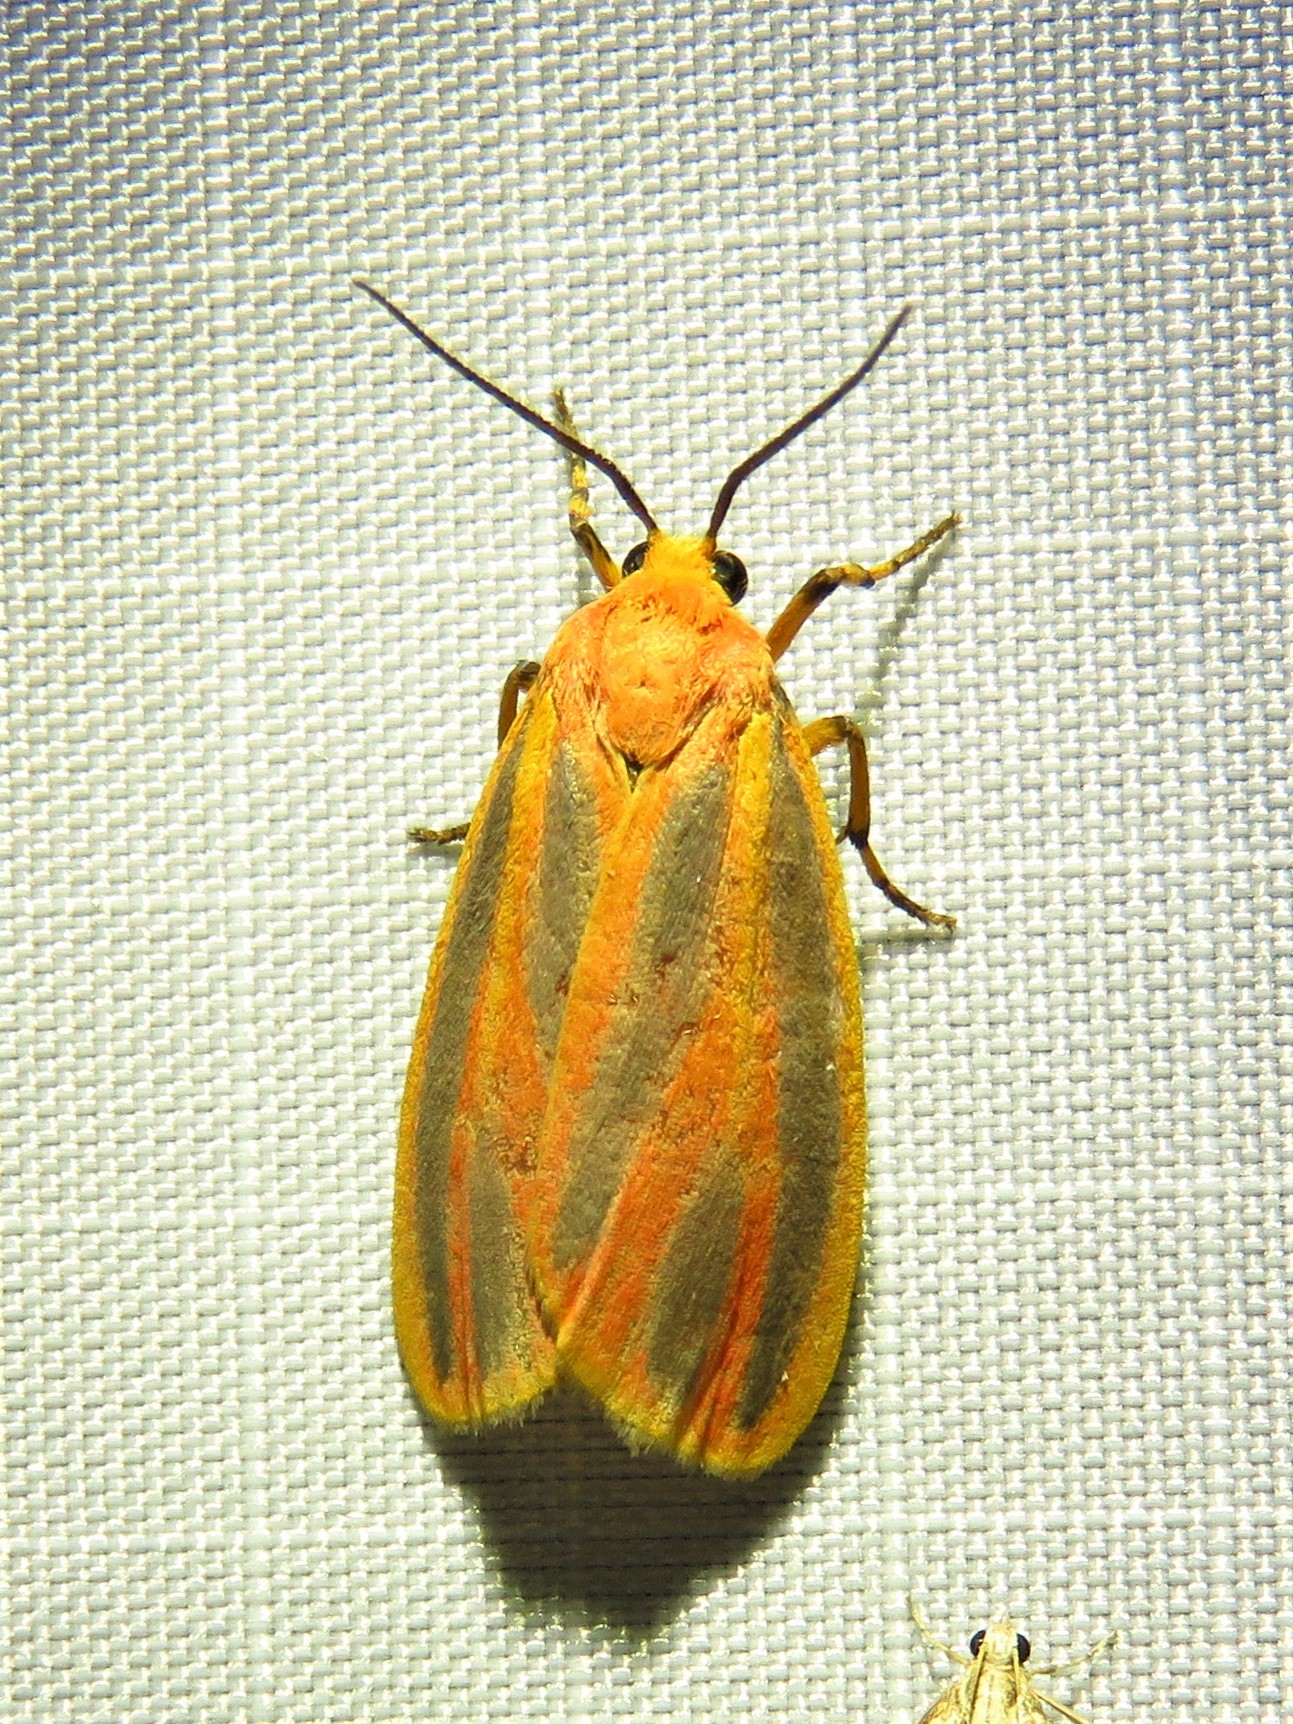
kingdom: Animalia
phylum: Arthropoda
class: Insecta
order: Lepidoptera
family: Erebidae
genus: Hypoprepia
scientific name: Hypoprepia fucosa
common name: Painted lichen moth
